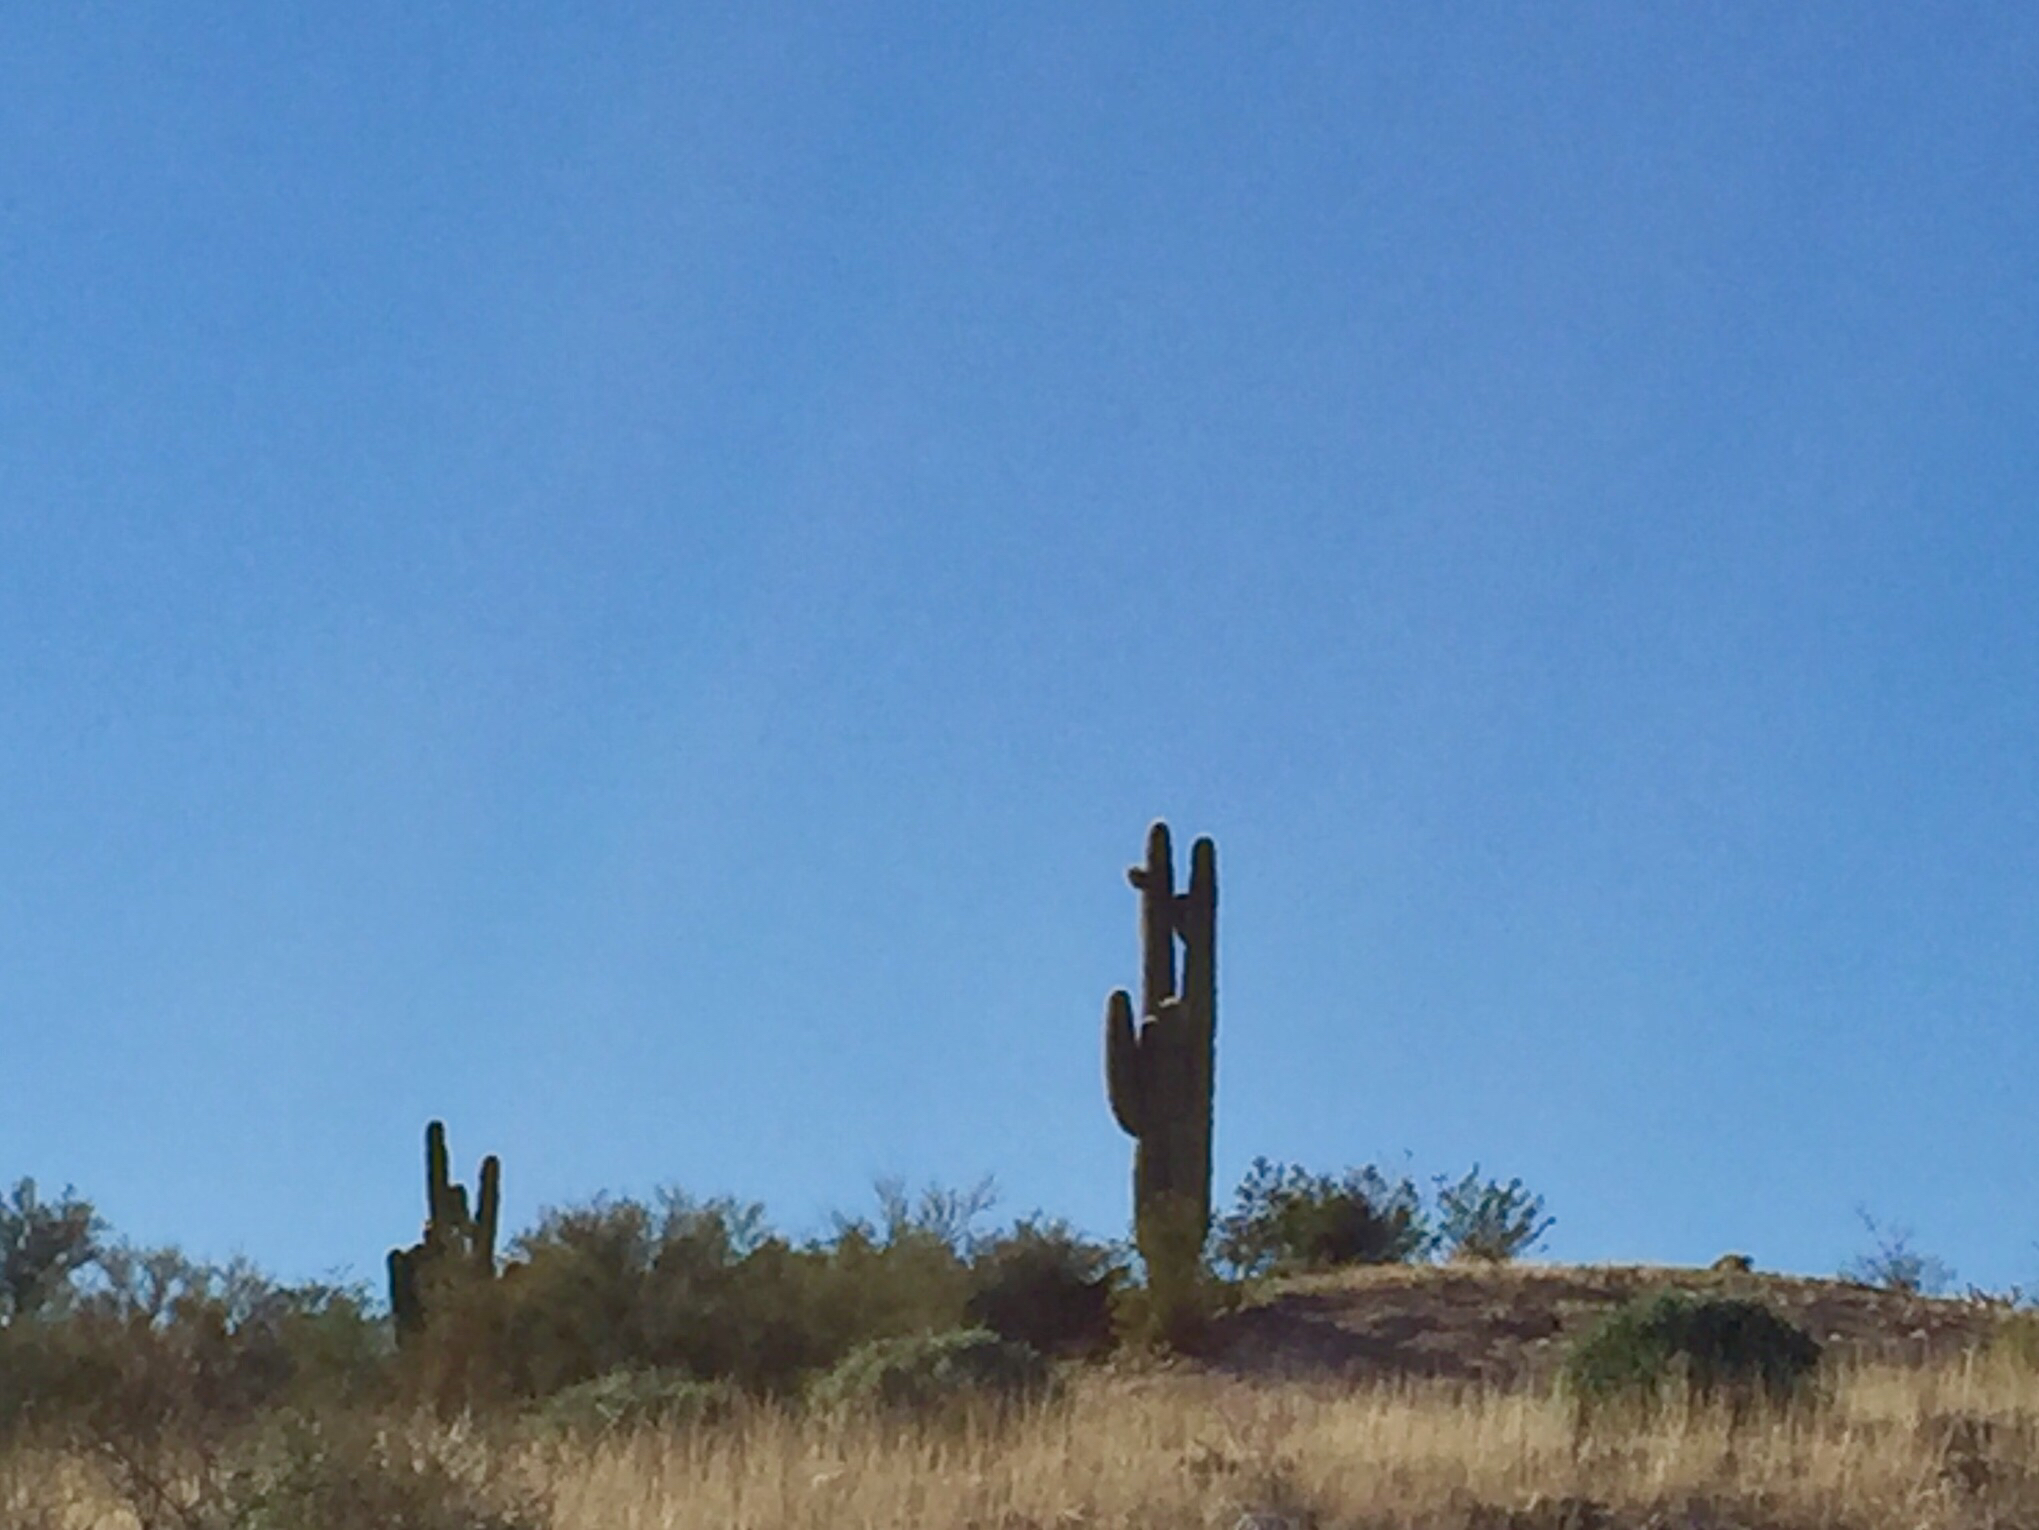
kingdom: Plantae
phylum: Tracheophyta
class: Magnoliopsida
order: Caryophyllales
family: Cactaceae
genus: Carnegiea
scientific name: Carnegiea gigantea
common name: Saguaro
